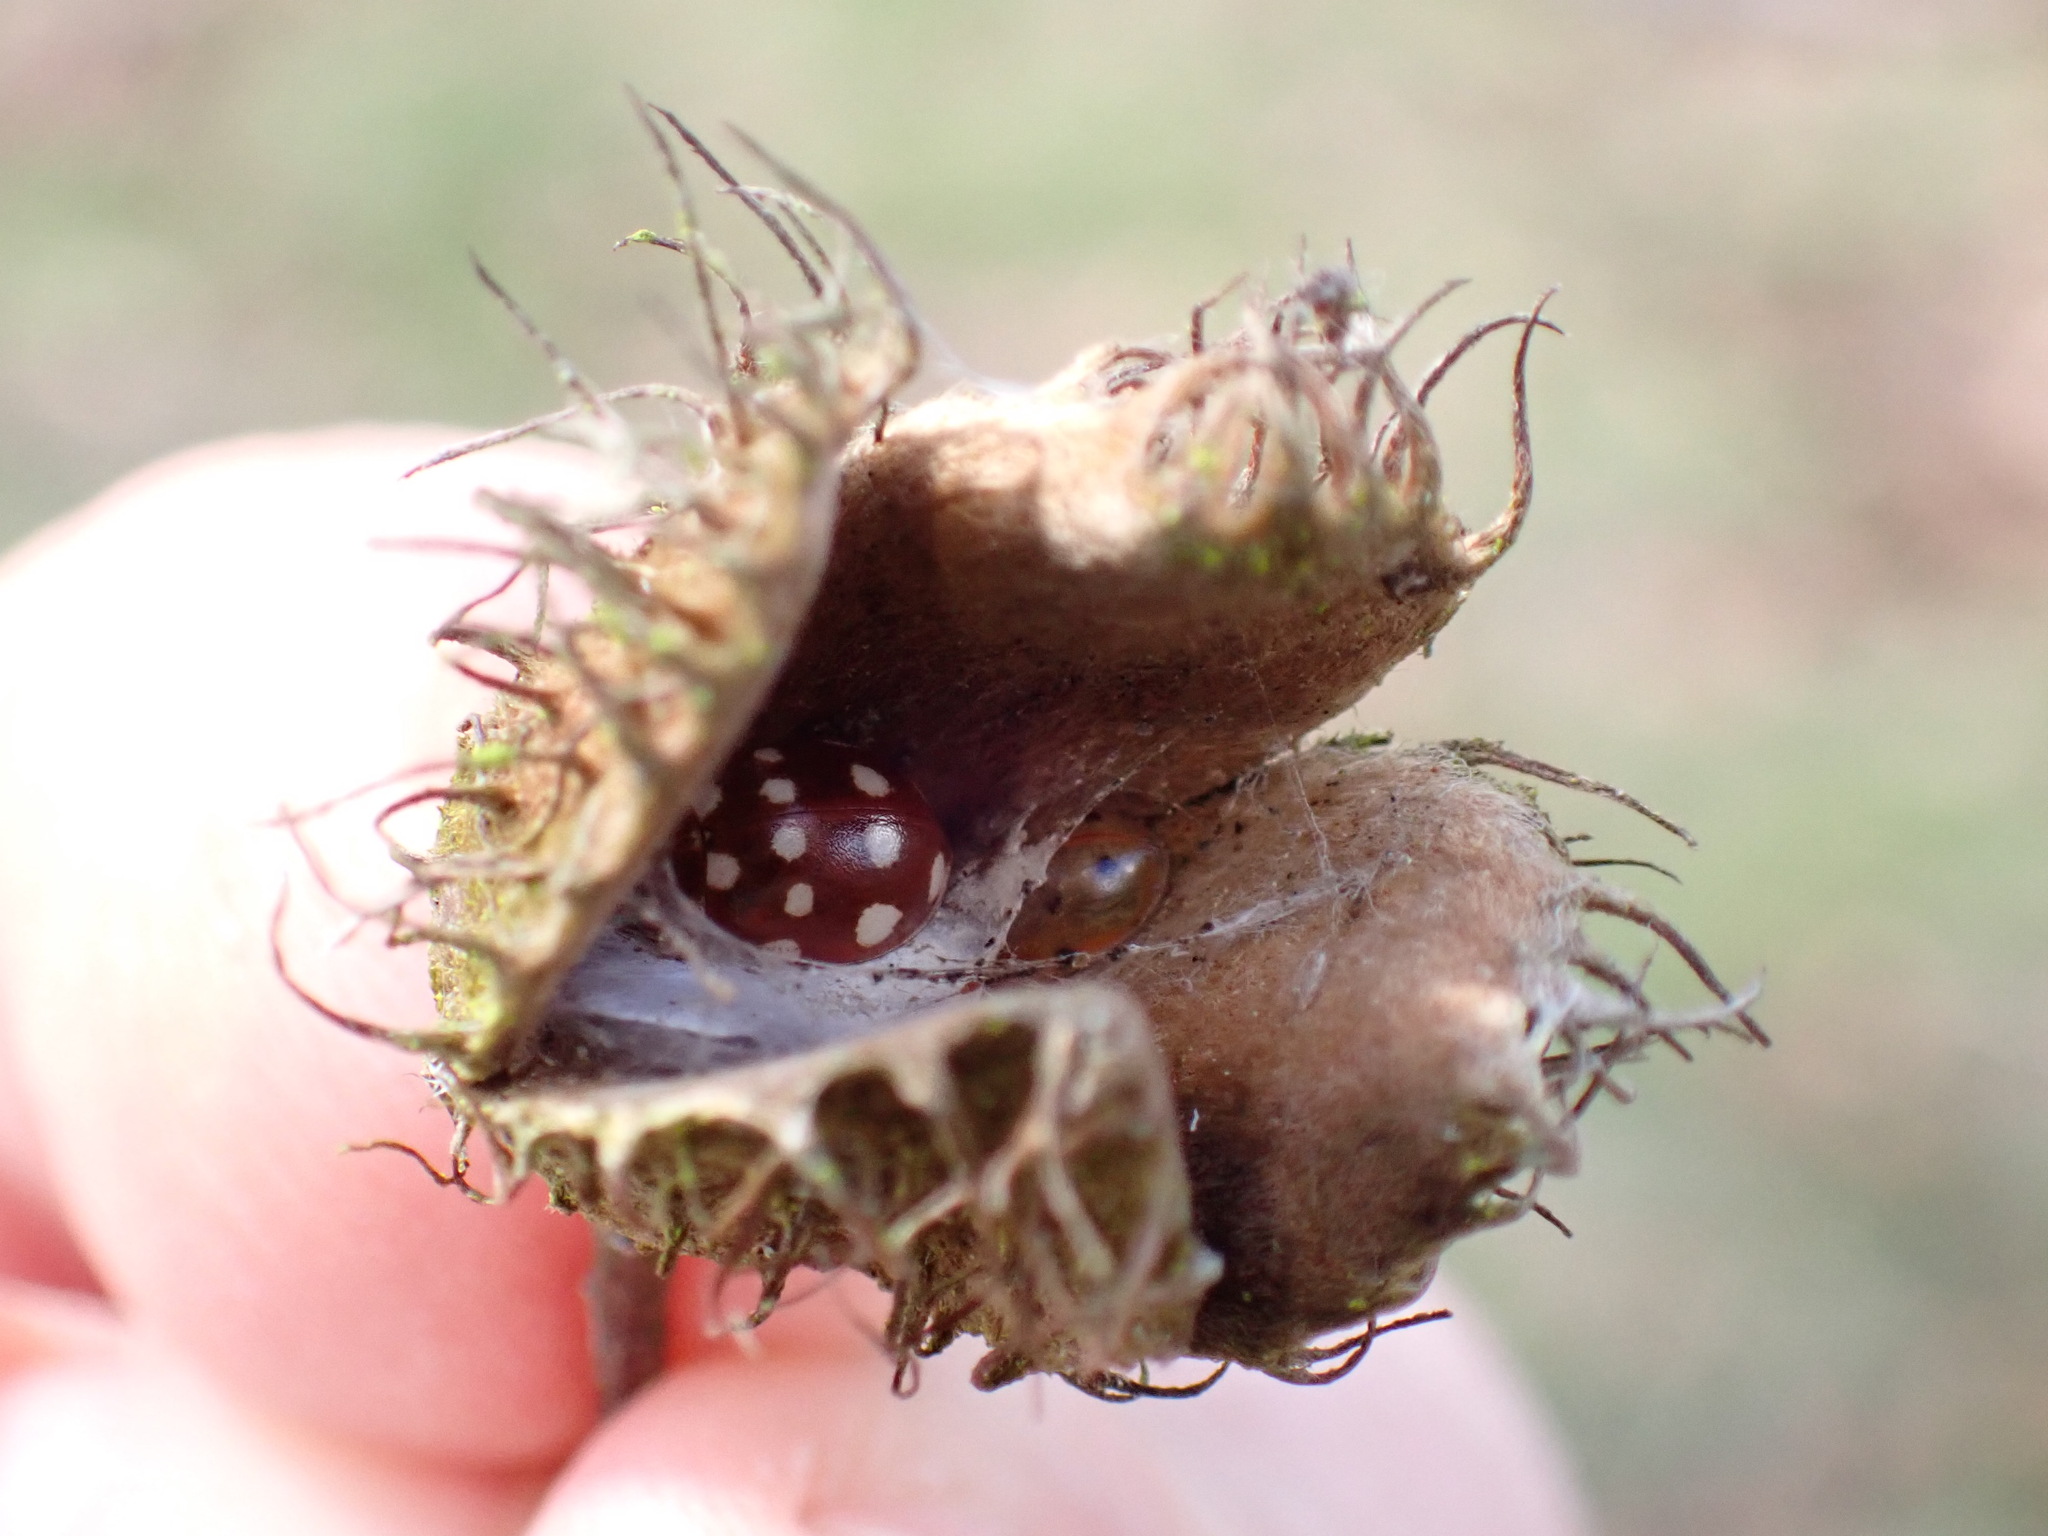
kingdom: Animalia
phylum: Arthropoda
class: Insecta
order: Coleoptera
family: Coccinellidae
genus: Calvia
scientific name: Calvia quatuordecimguttata
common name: Cream-spot ladybird
